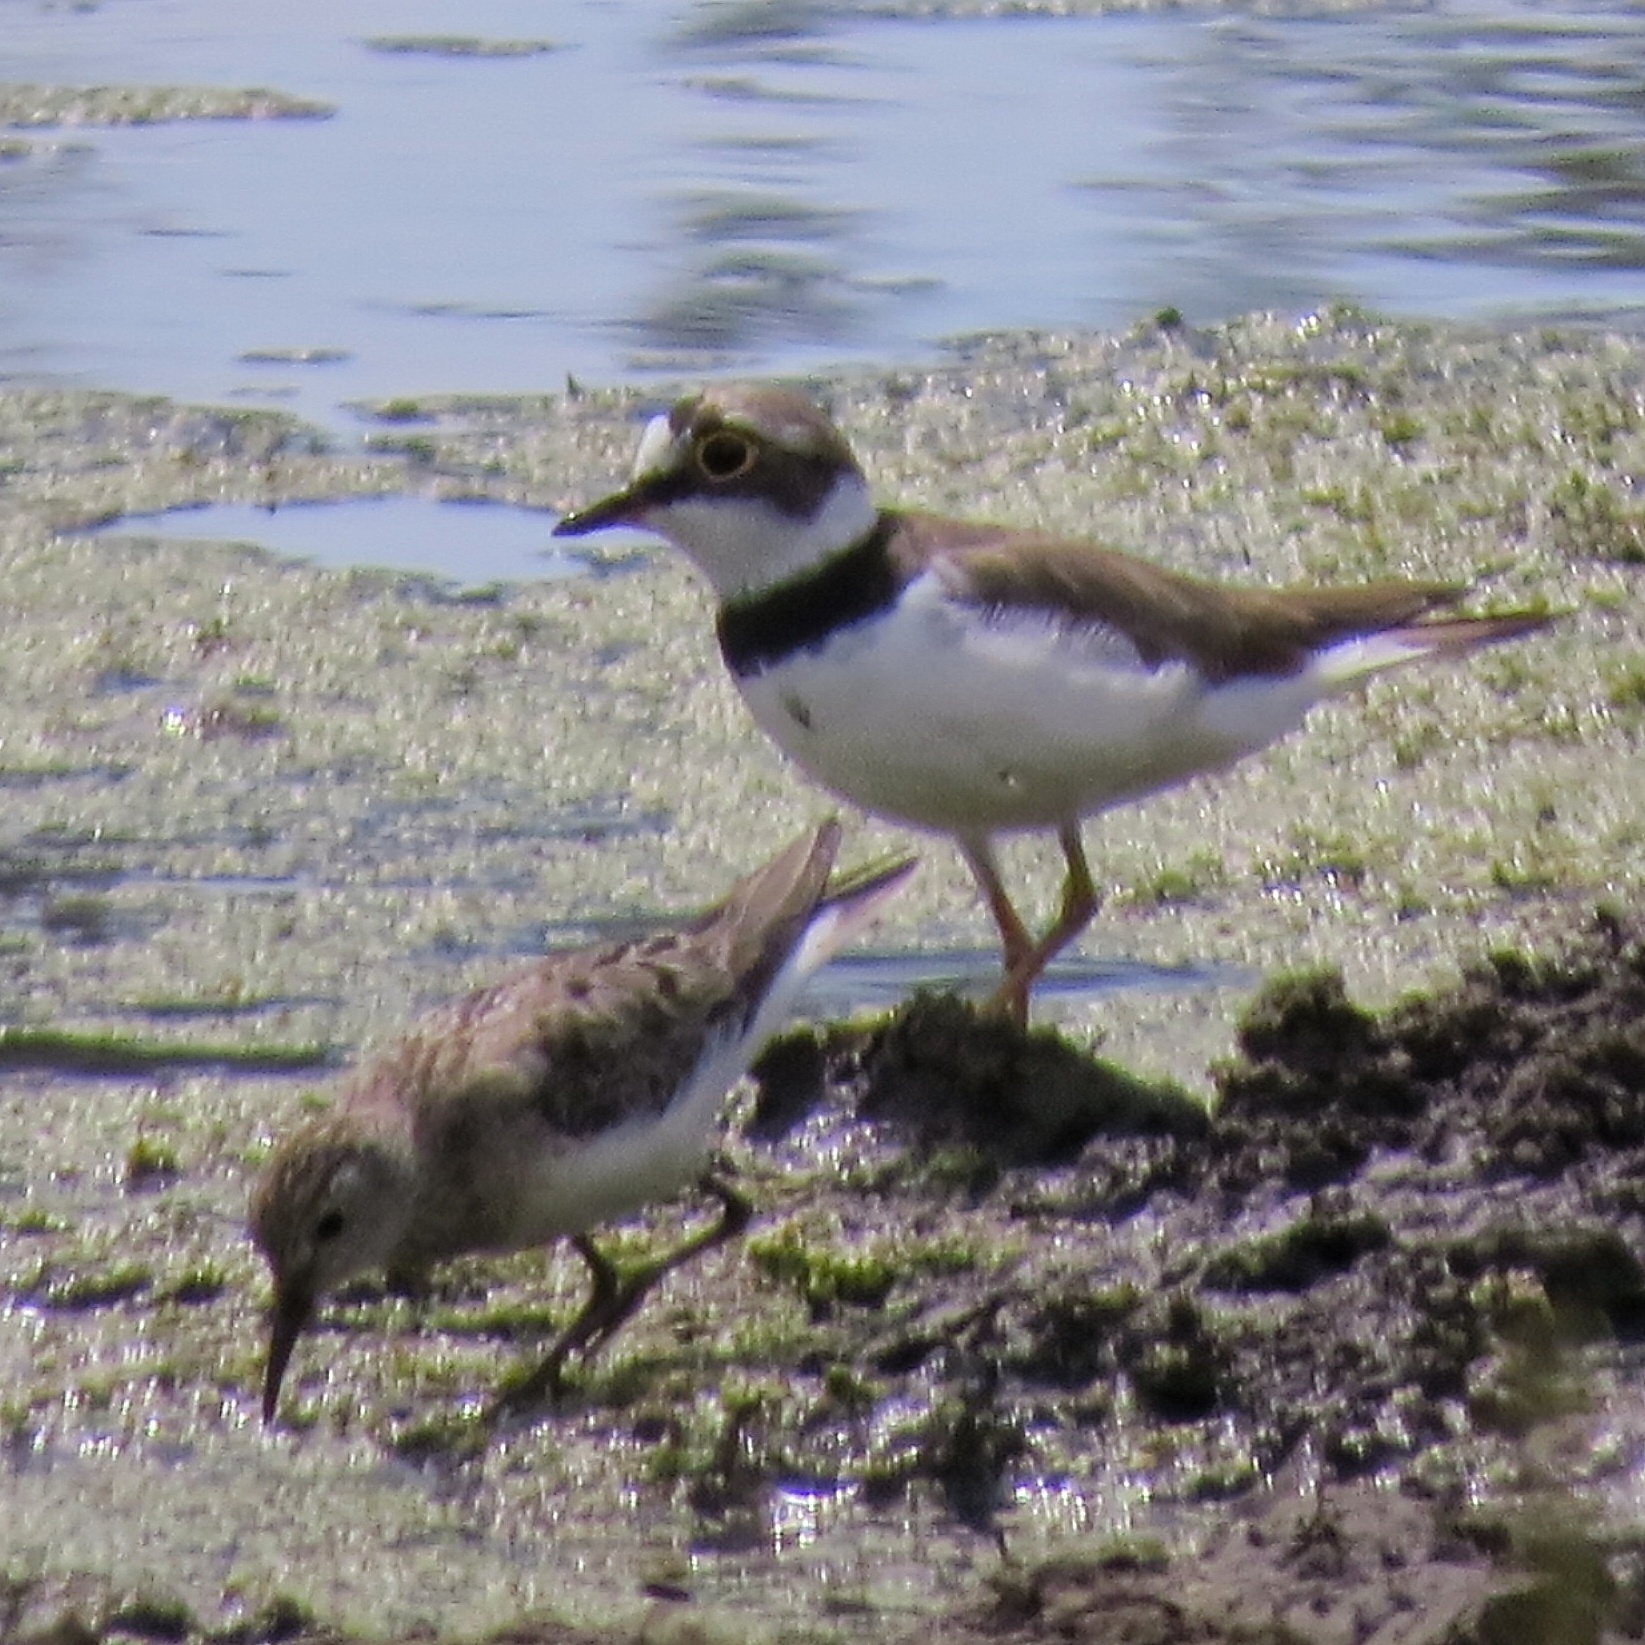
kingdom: Animalia
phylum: Chordata
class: Aves
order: Charadriiformes
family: Charadriidae
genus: Charadrius
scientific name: Charadrius dubius
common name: Little ringed plover
